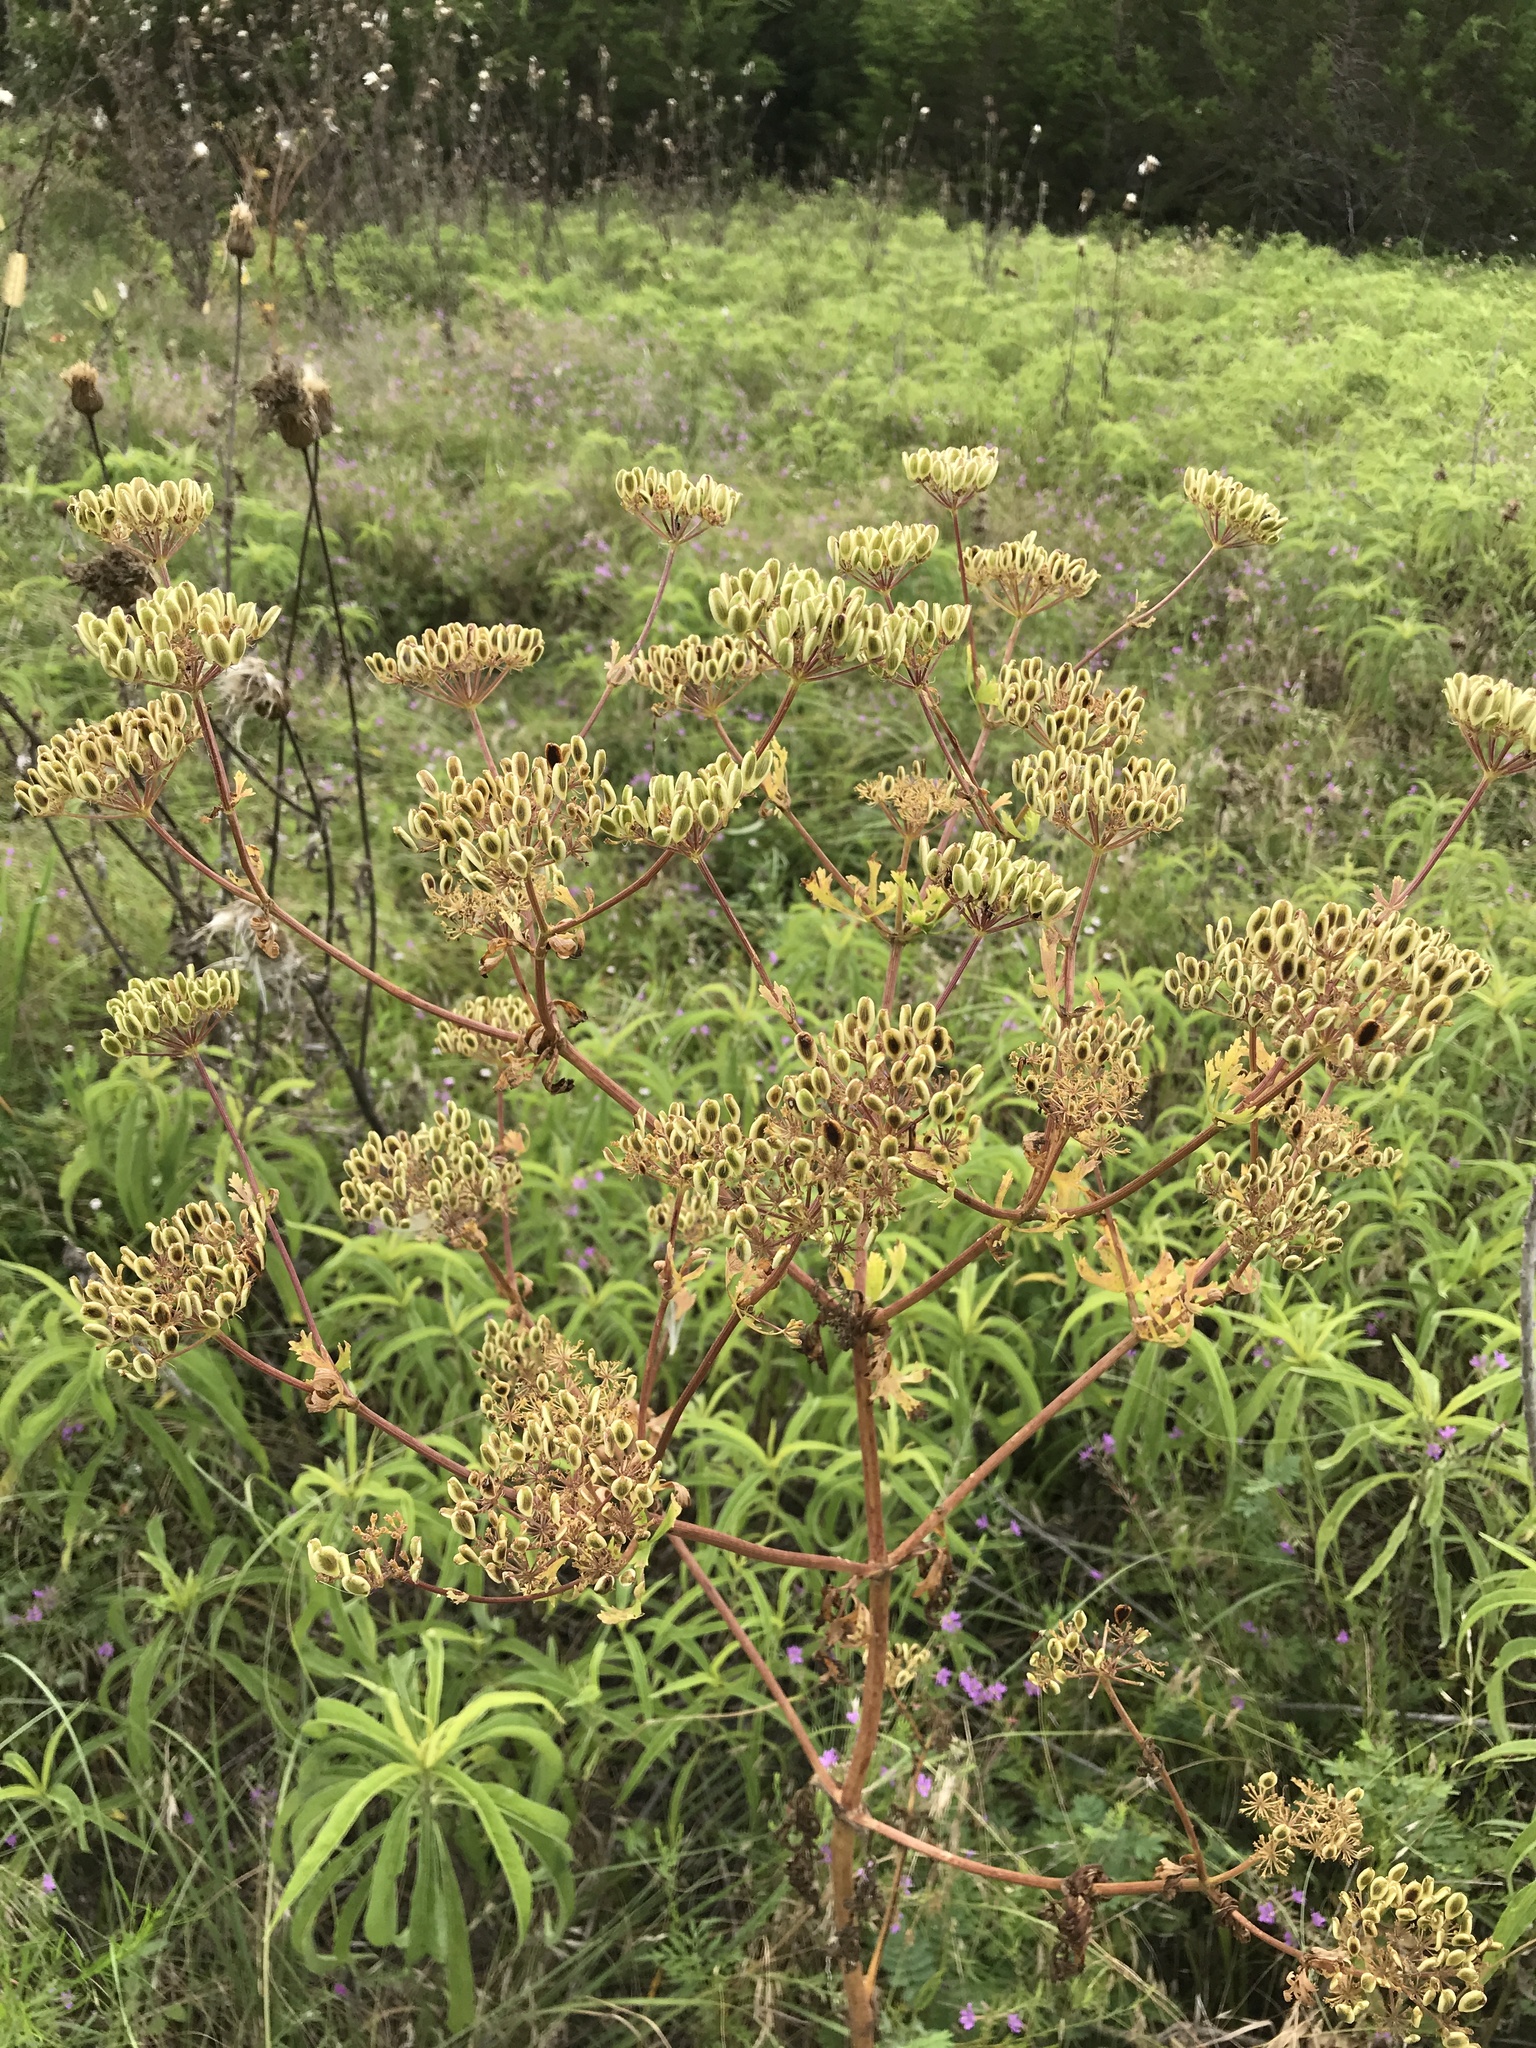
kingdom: Plantae
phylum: Tracheophyta
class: Magnoliopsida
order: Apiales
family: Apiaceae
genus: Polytaenia
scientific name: Polytaenia texana
